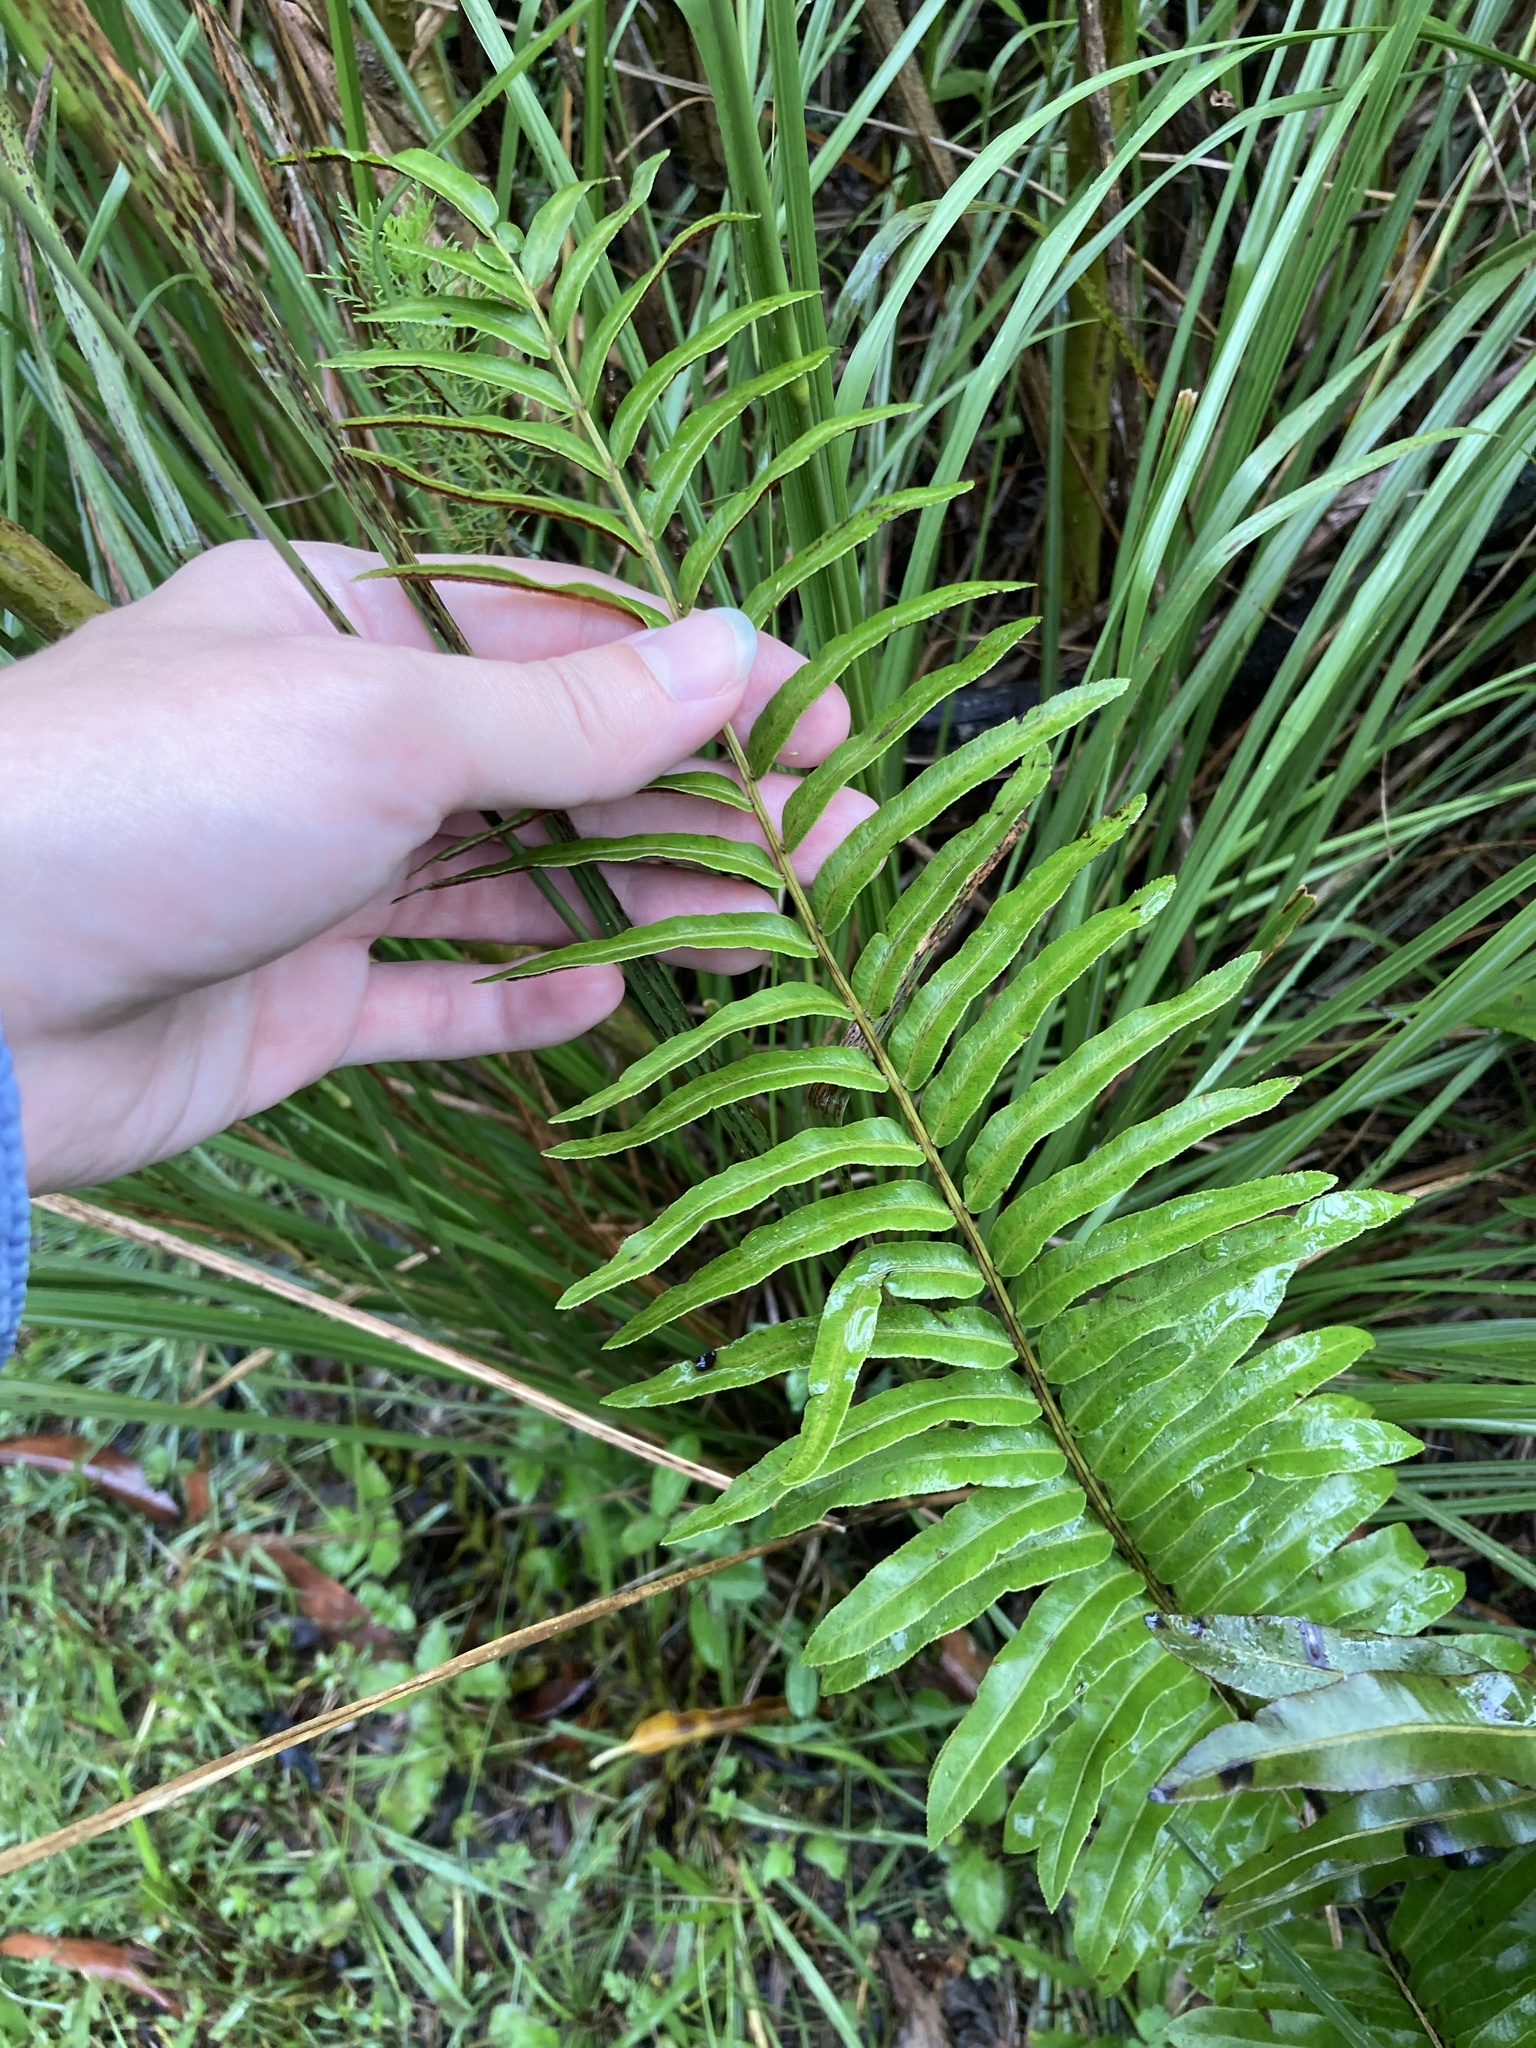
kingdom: Plantae
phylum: Tracheophyta
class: Polypodiopsida
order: Polypodiales
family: Blechnaceae
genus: Telmatoblechnum
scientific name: Telmatoblechnum serrulatum
